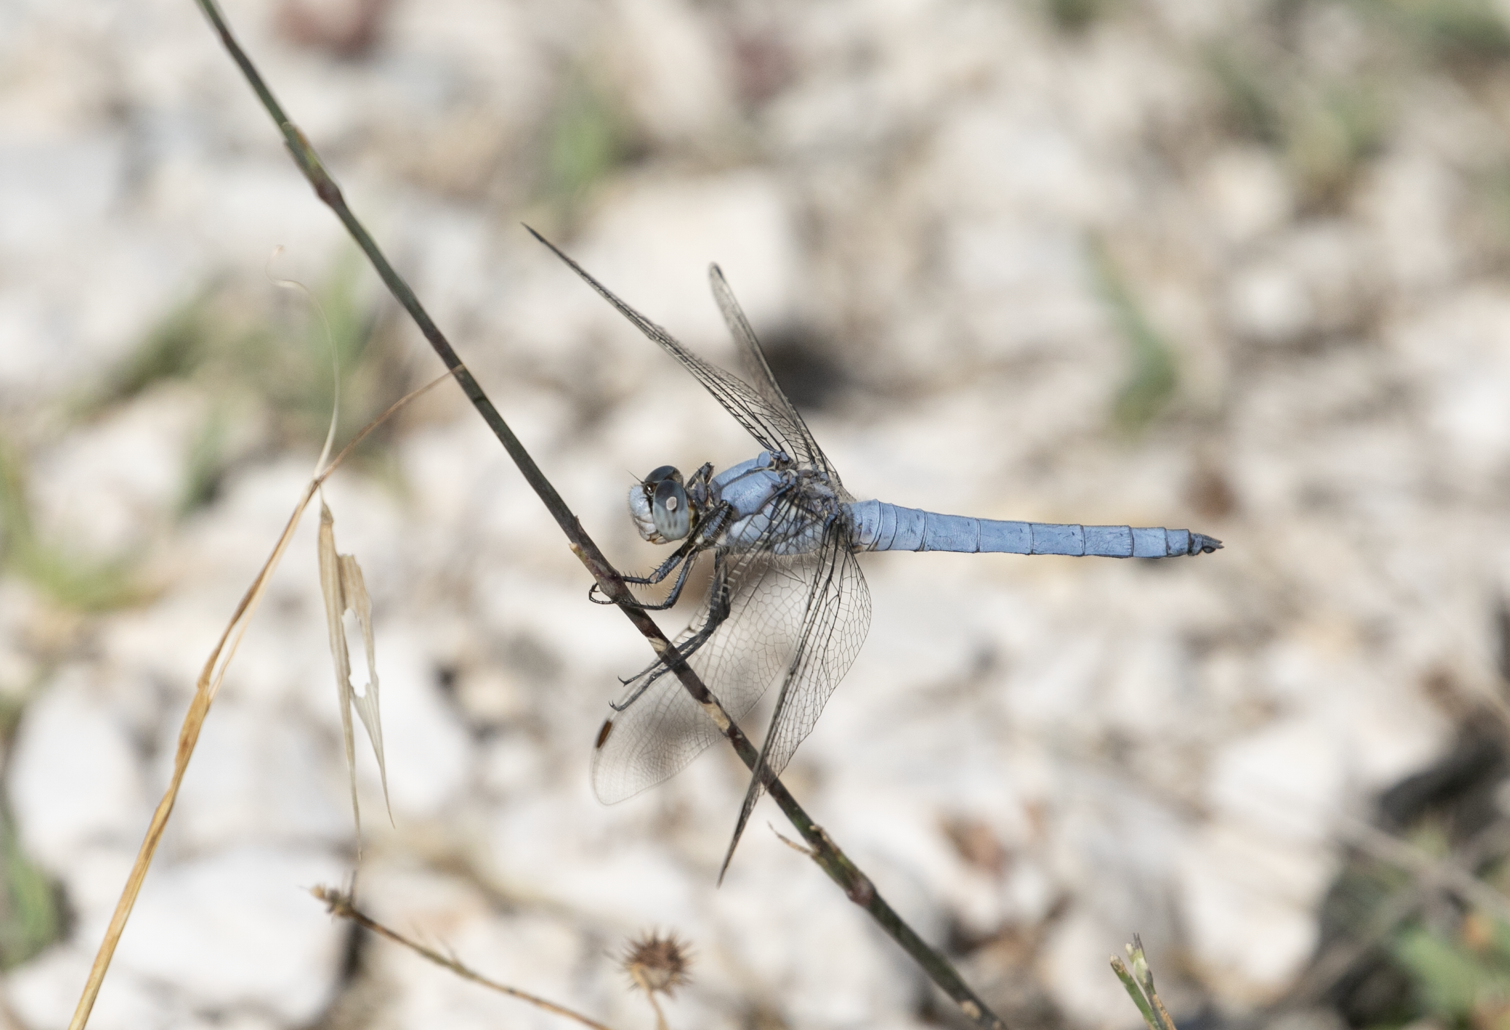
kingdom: Animalia
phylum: Arthropoda
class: Insecta
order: Odonata
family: Libellulidae
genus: Orthetrum
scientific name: Orthetrum brunneum
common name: Southern skimmer
